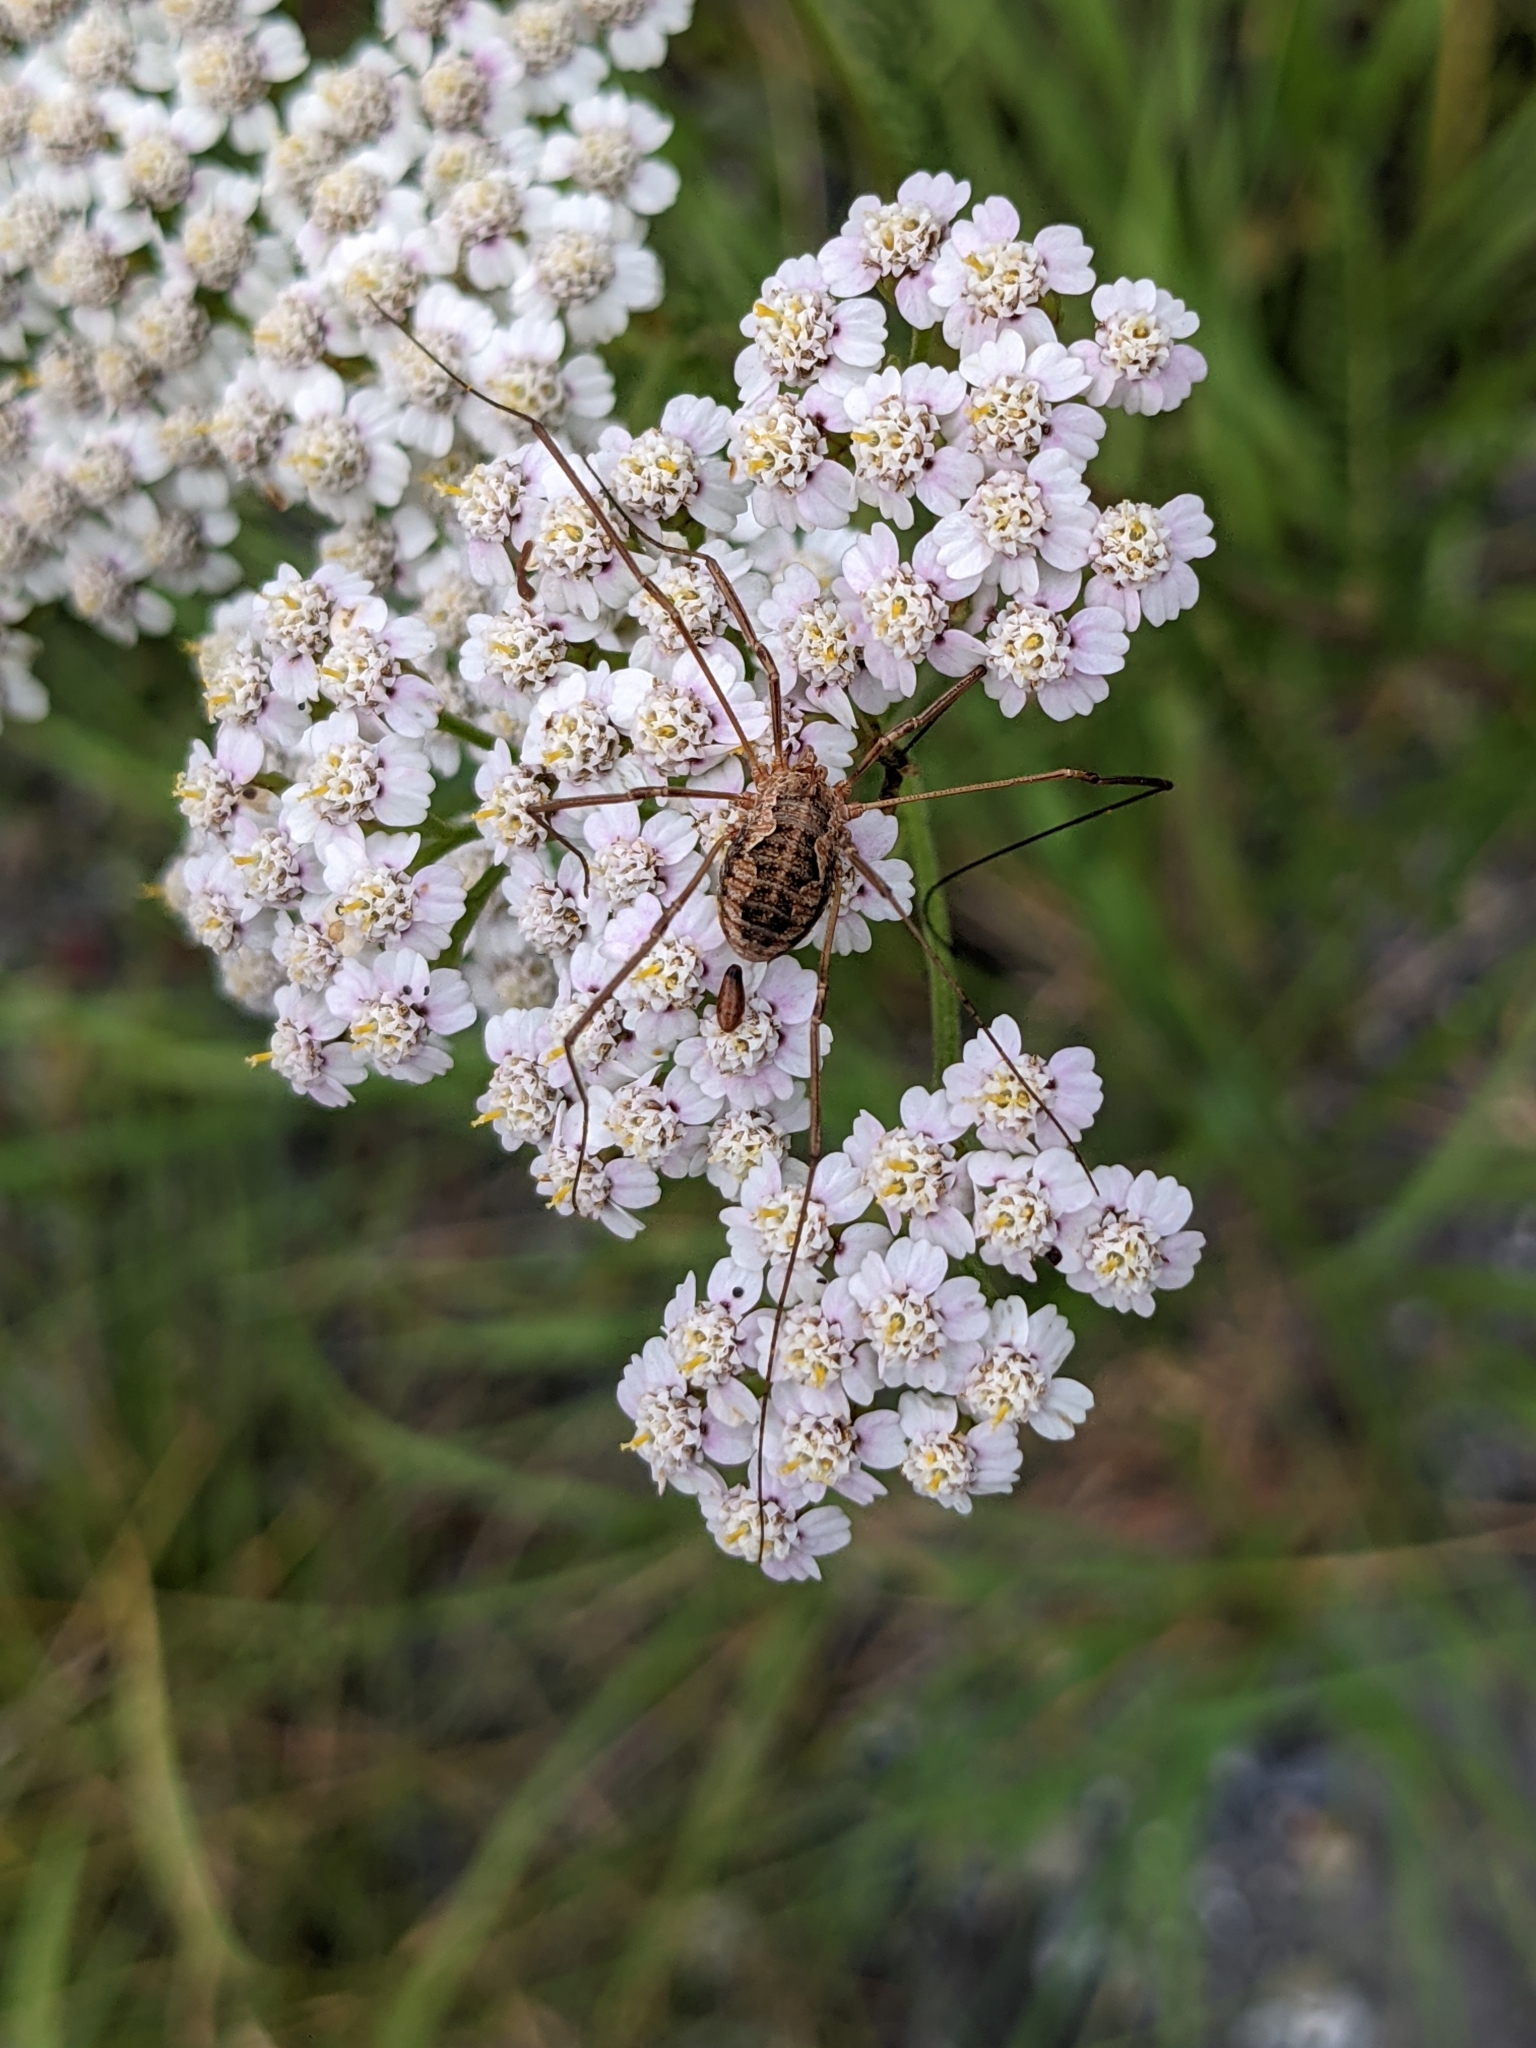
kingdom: Animalia
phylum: Arthropoda
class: Arachnida
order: Opiliones
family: Phalangiidae
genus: Phalangium
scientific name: Phalangium opilio
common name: Daddy longleg
